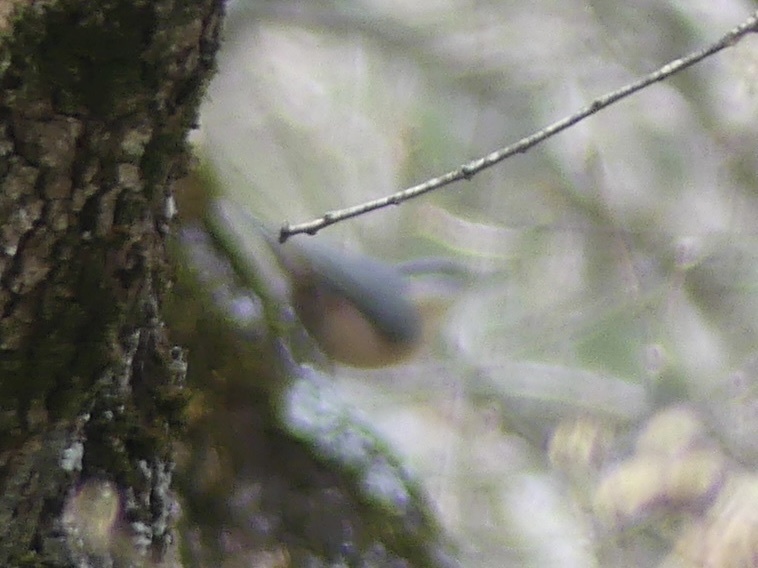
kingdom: Animalia
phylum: Chordata
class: Aves
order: Passeriformes
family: Sittidae
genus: Sitta
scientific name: Sitta europaea
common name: Eurasian nuthatch
